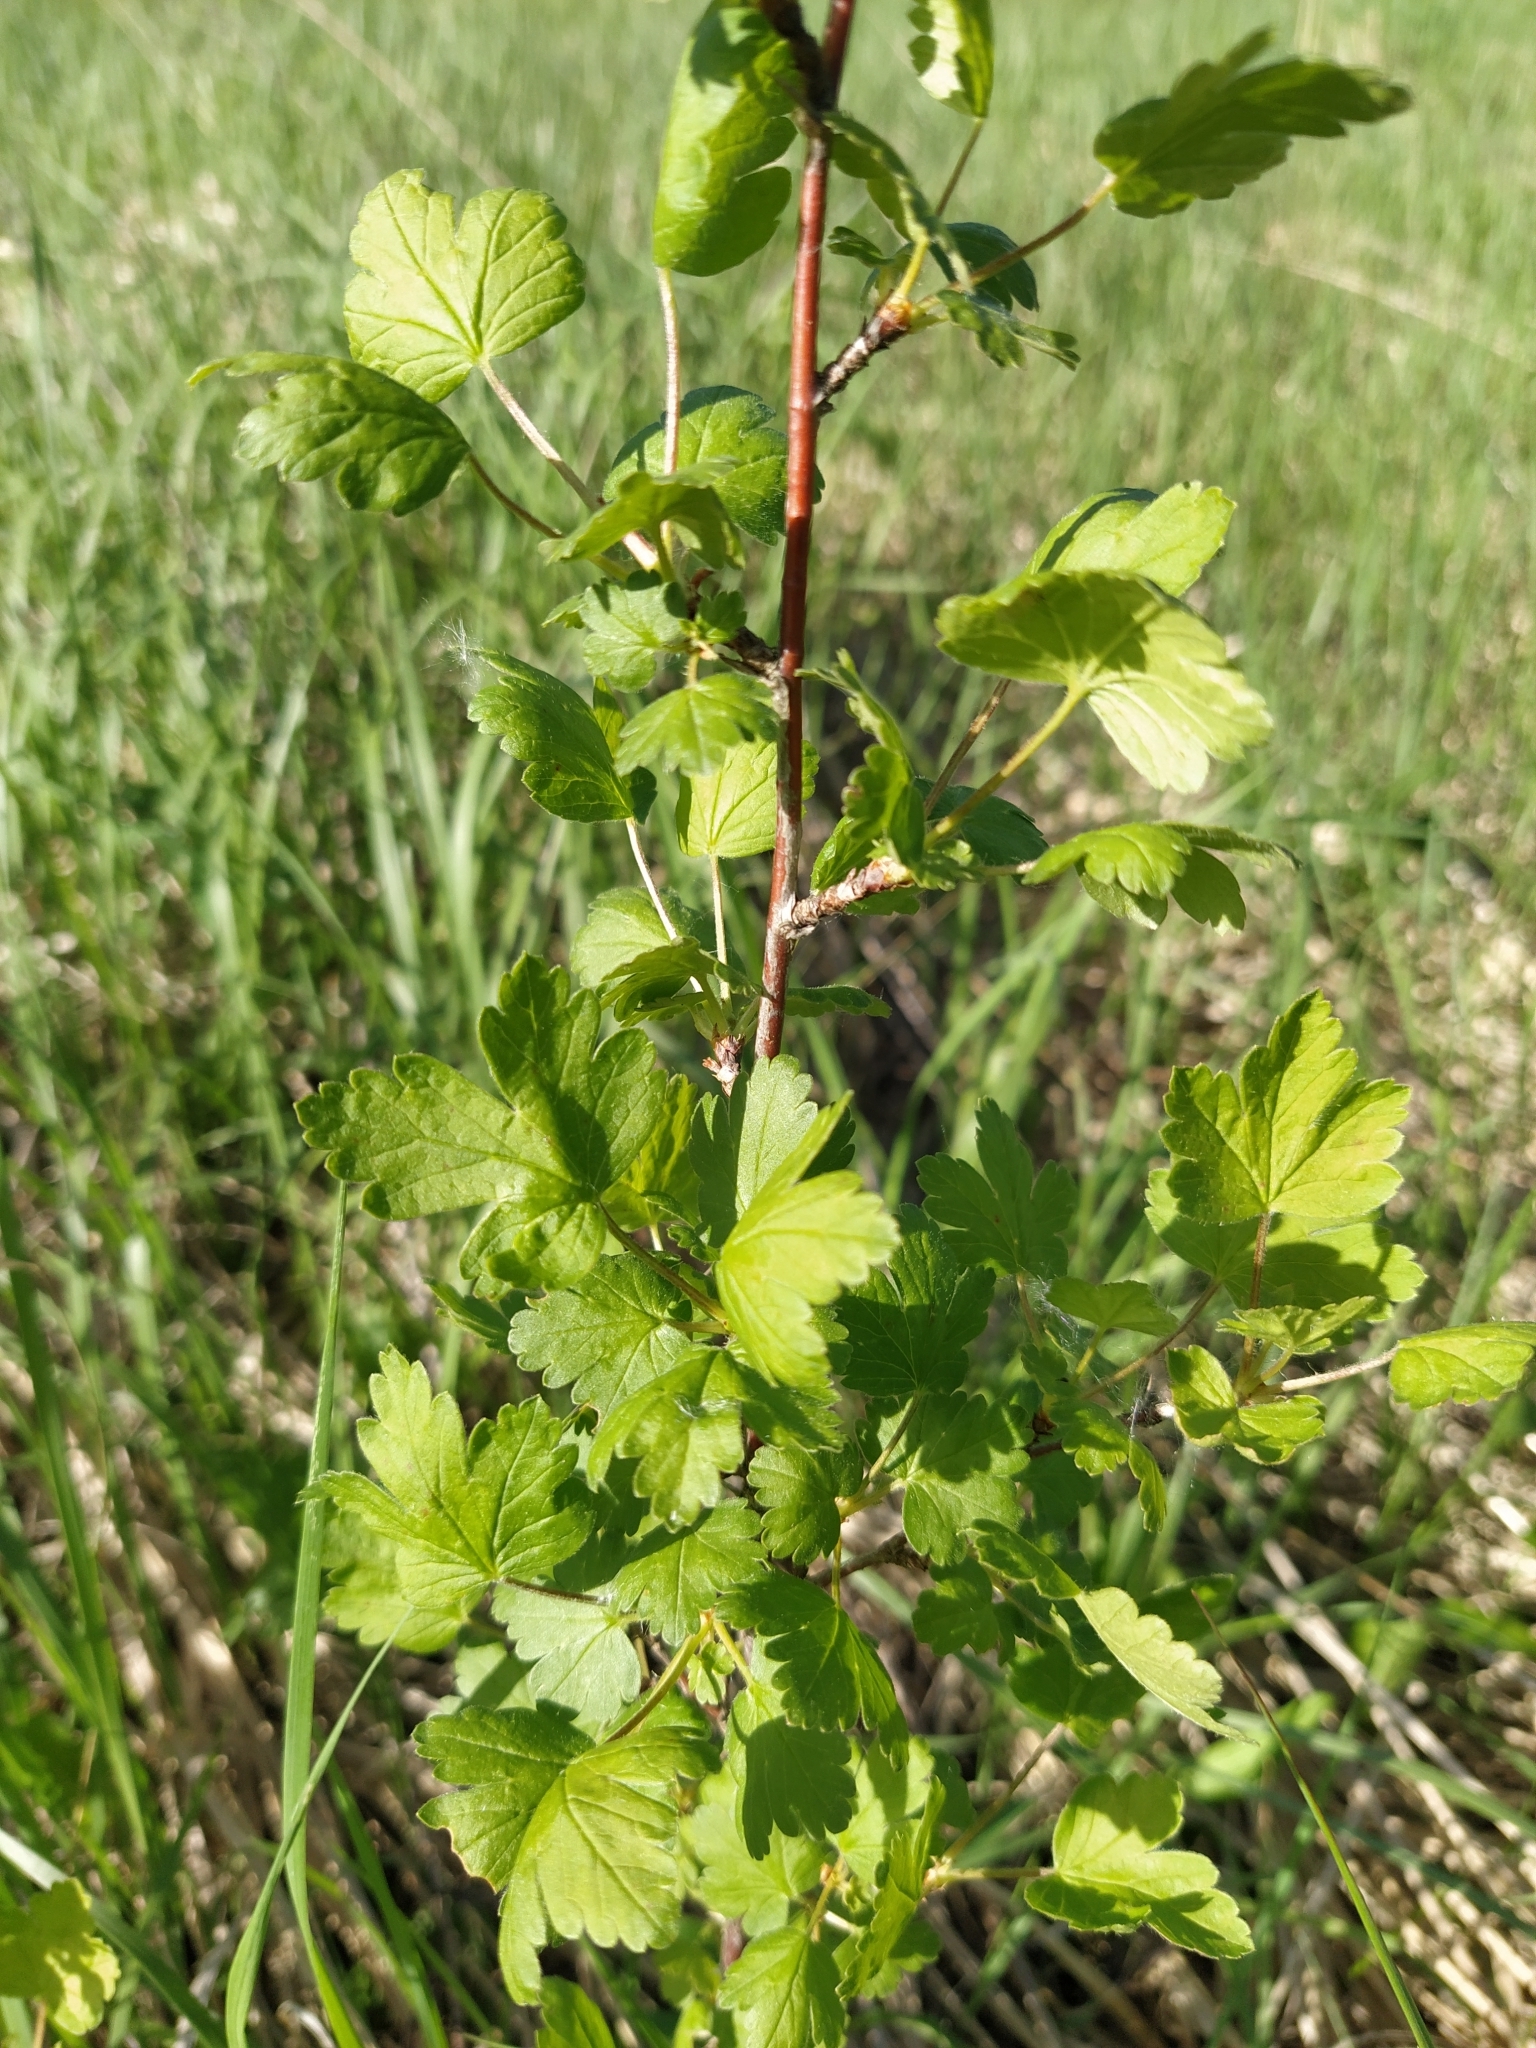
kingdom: Plantae
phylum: Tracheophyta
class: Magnoliopsida
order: Saxifragales
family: Grossulariaceae
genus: Ribes
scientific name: Ribes uva-crispa
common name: Gooseberry
